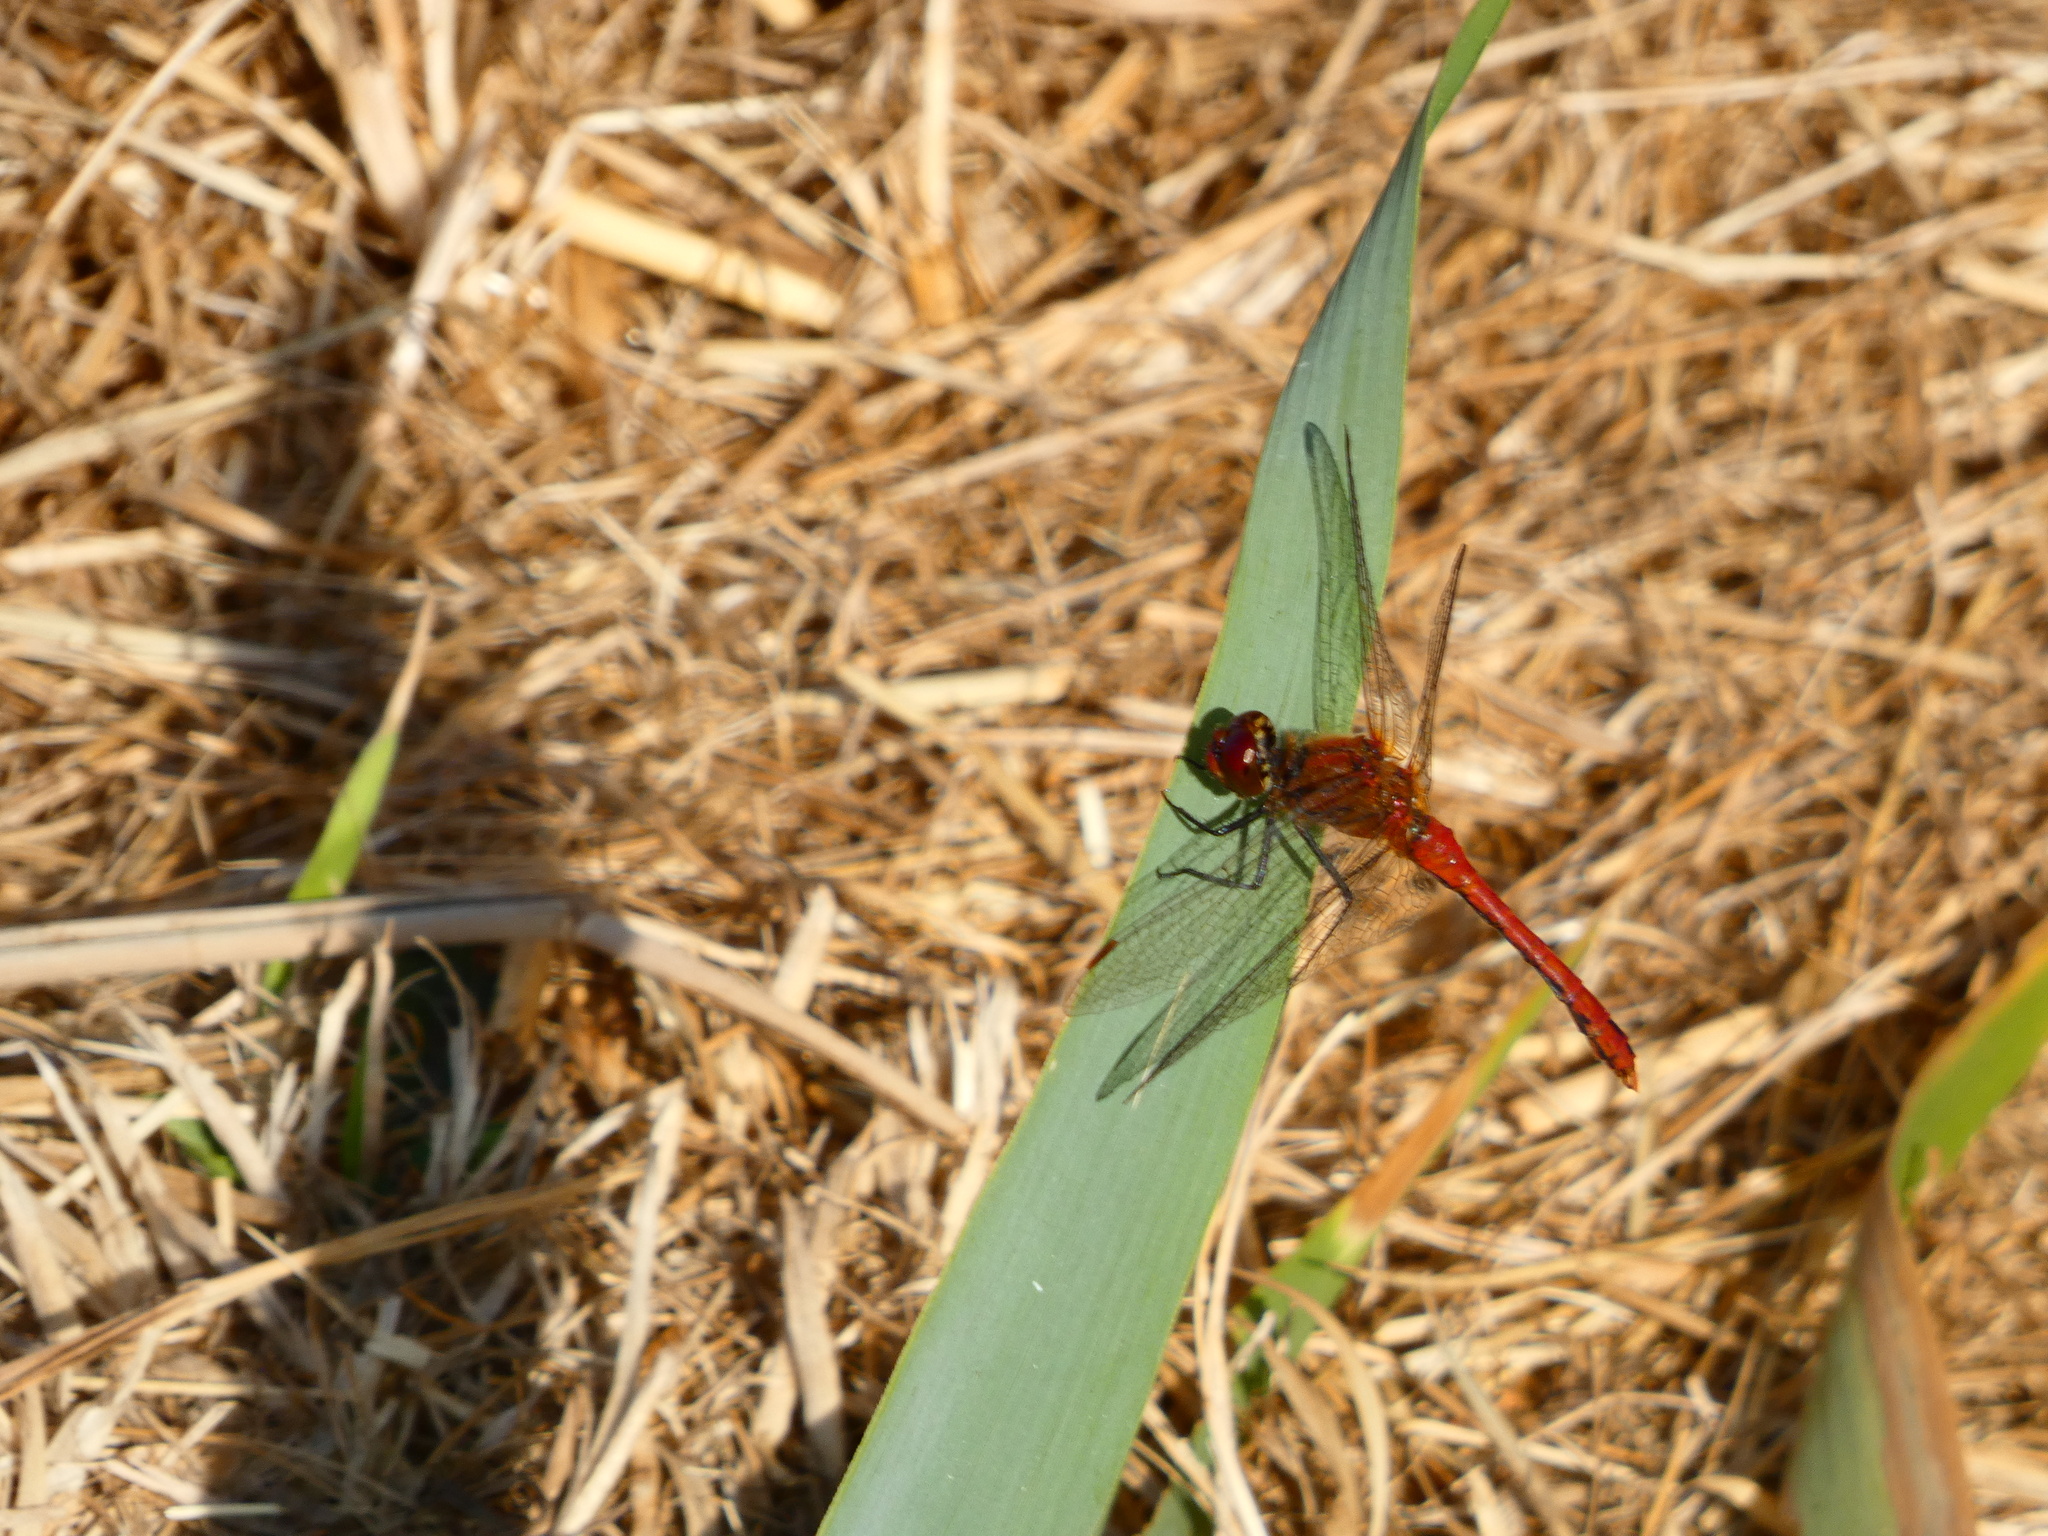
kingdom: Animalia
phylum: Arthropoda
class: Insecta
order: Odonata
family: Libellulidae
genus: Sympetrum
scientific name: Sympetrum sanguineum
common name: Ruddy darter
